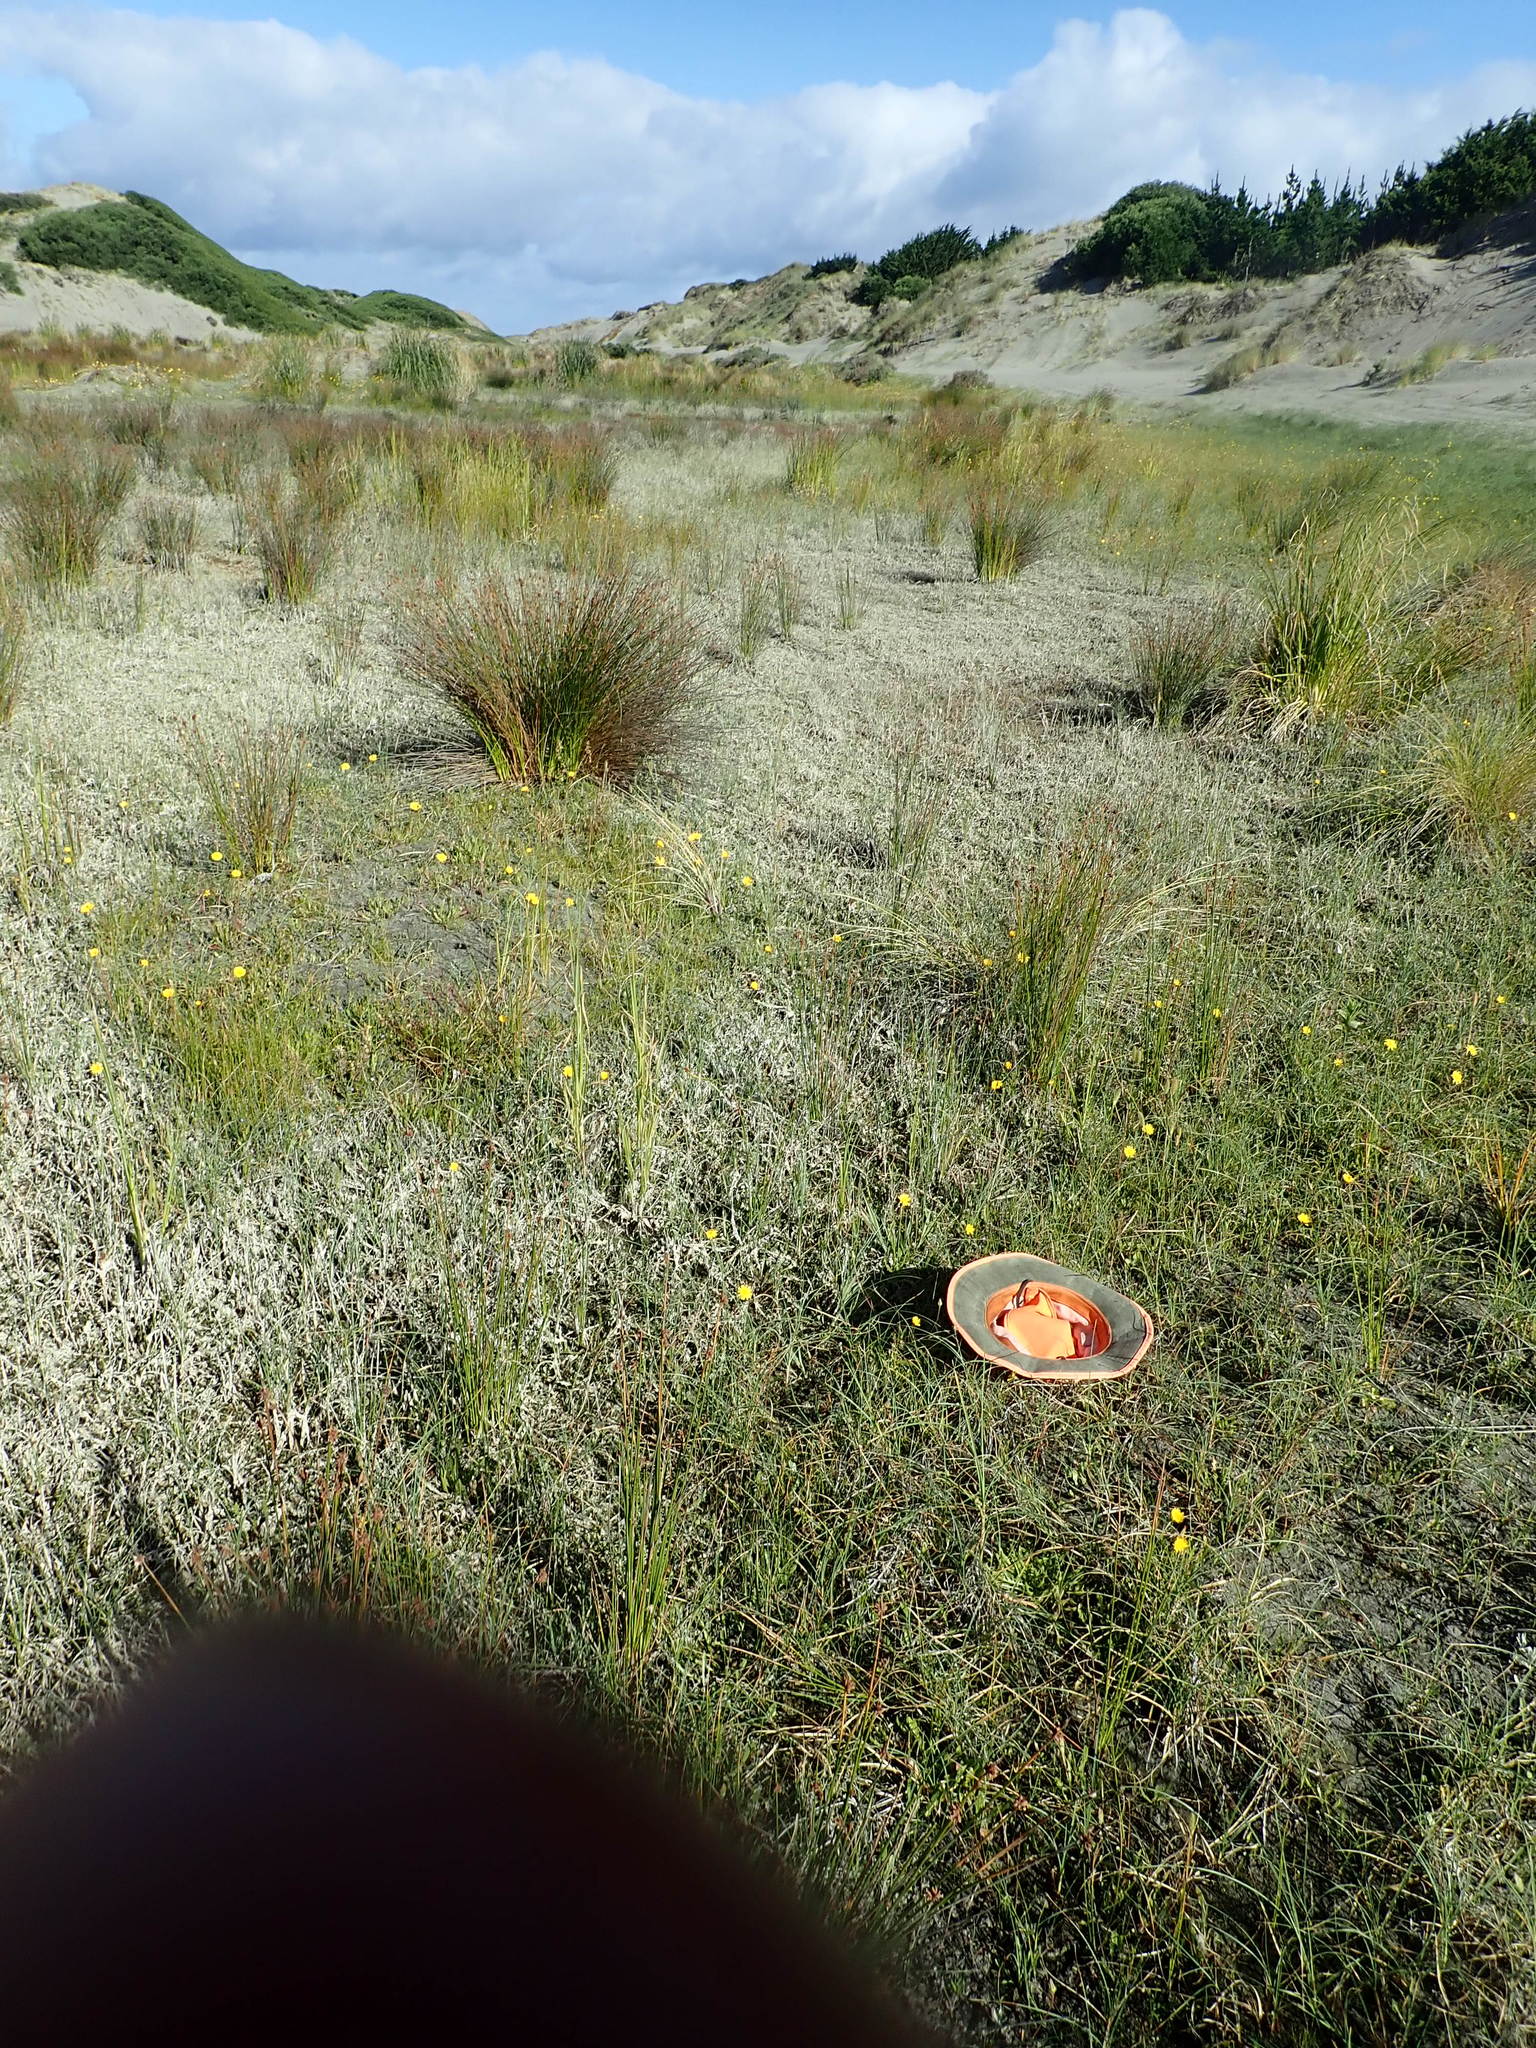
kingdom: Plantae
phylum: Tracheophyta
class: Magnoliopsida
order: Asterales
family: Campanulaceae
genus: Lobelia
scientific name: Lobelia anceps
